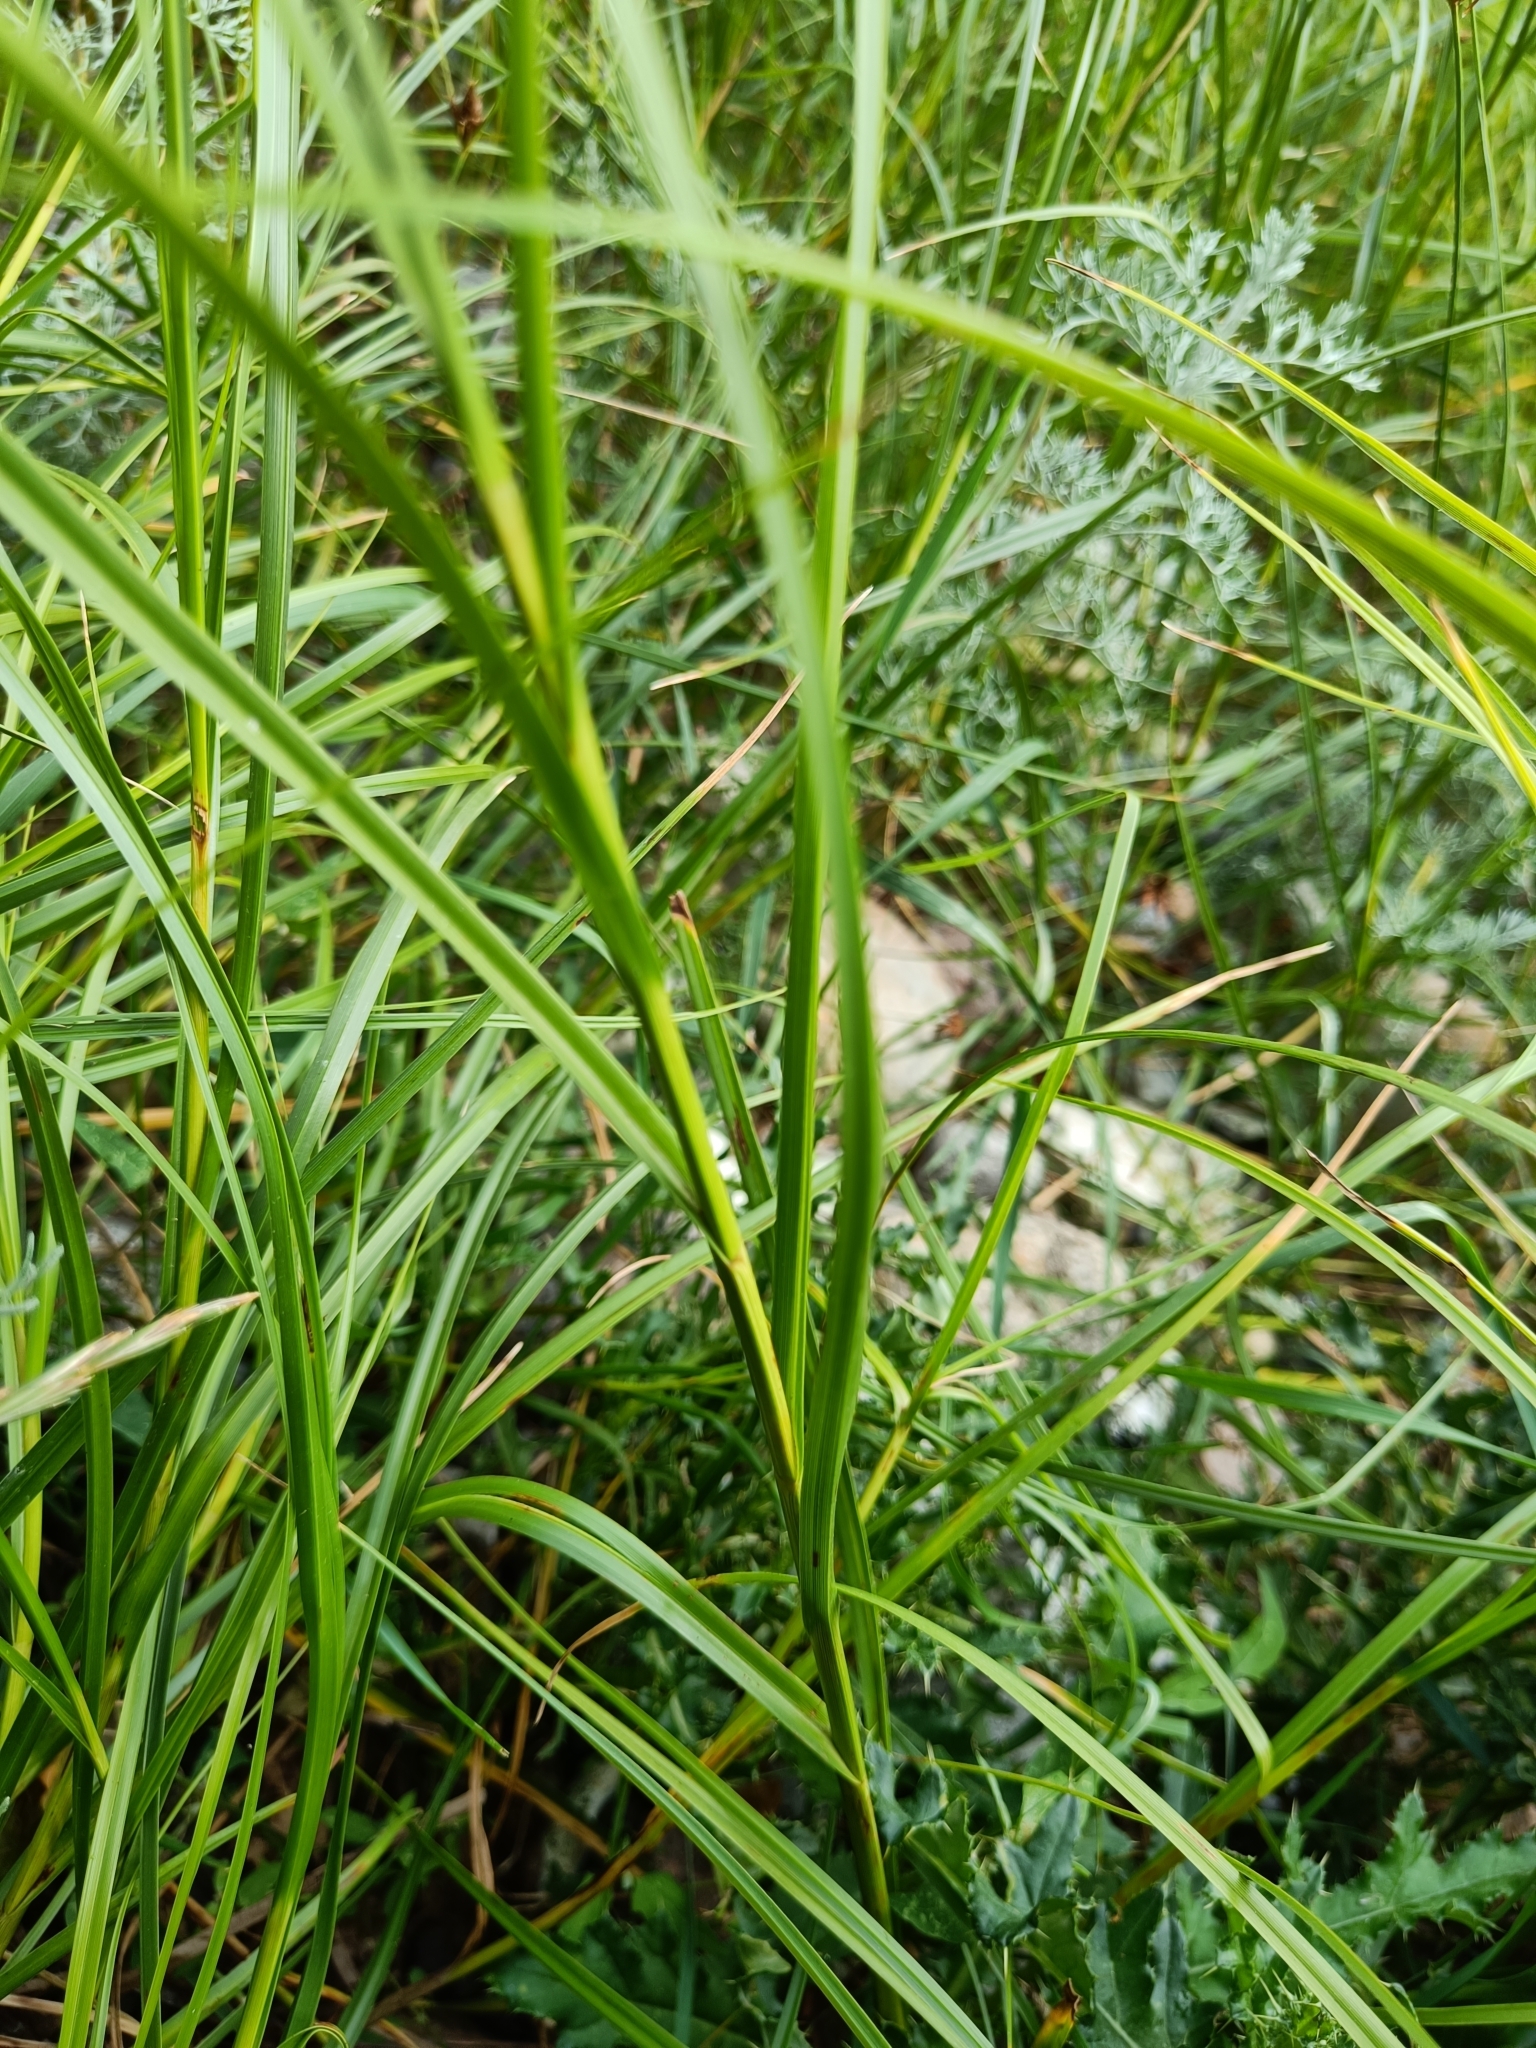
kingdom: Plantae
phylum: Tracheophyta
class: Liliopsida
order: Poales
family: Cyperaceae
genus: Bolboschoenus
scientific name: Bolboschoenus maritimus
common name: Sea club-rush
